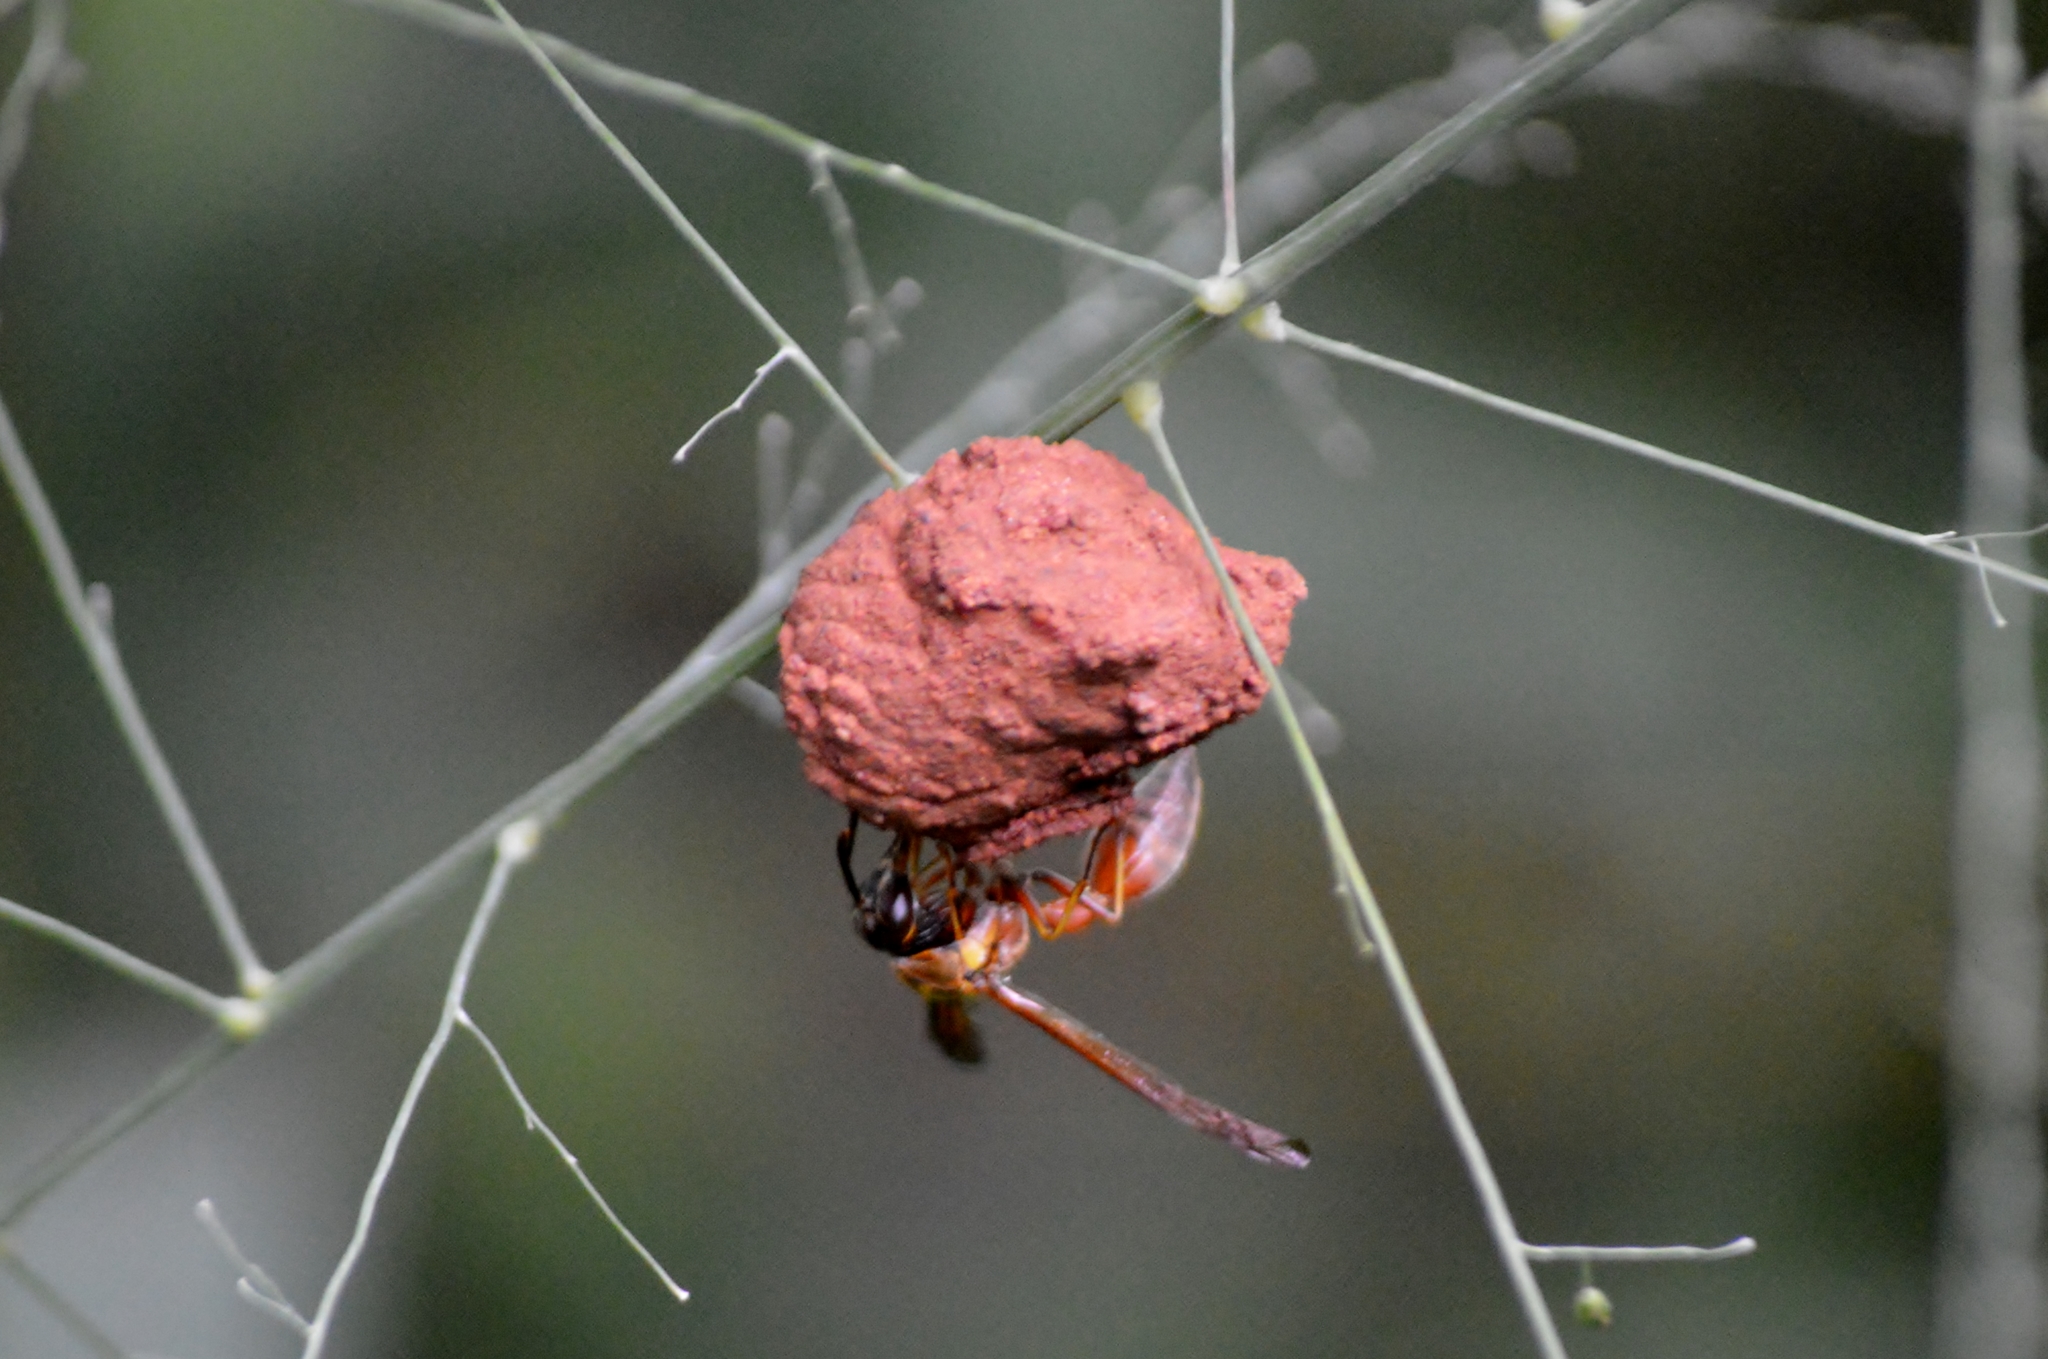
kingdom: Animalia
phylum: Arthropoda
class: Insecta
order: Hymenoptera
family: Eumenidae
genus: Pachymenes
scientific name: Pachymenes ghilianii
